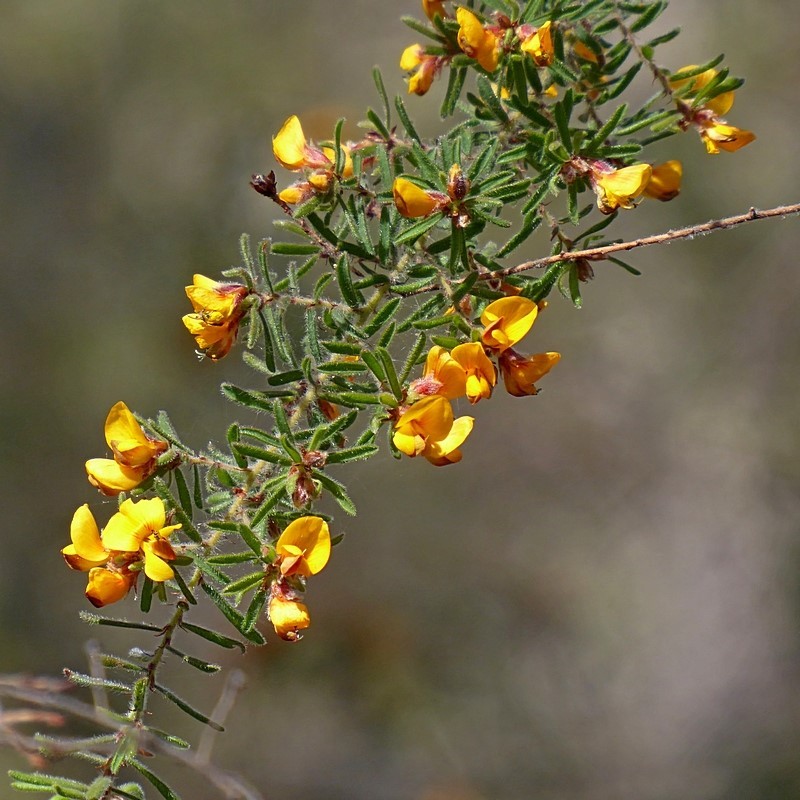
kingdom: Plantae
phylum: Tracheophyta
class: Magnoliopsida
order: Fabales
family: Fabaceae
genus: Pultenaea
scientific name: Pultenaea hispidula
